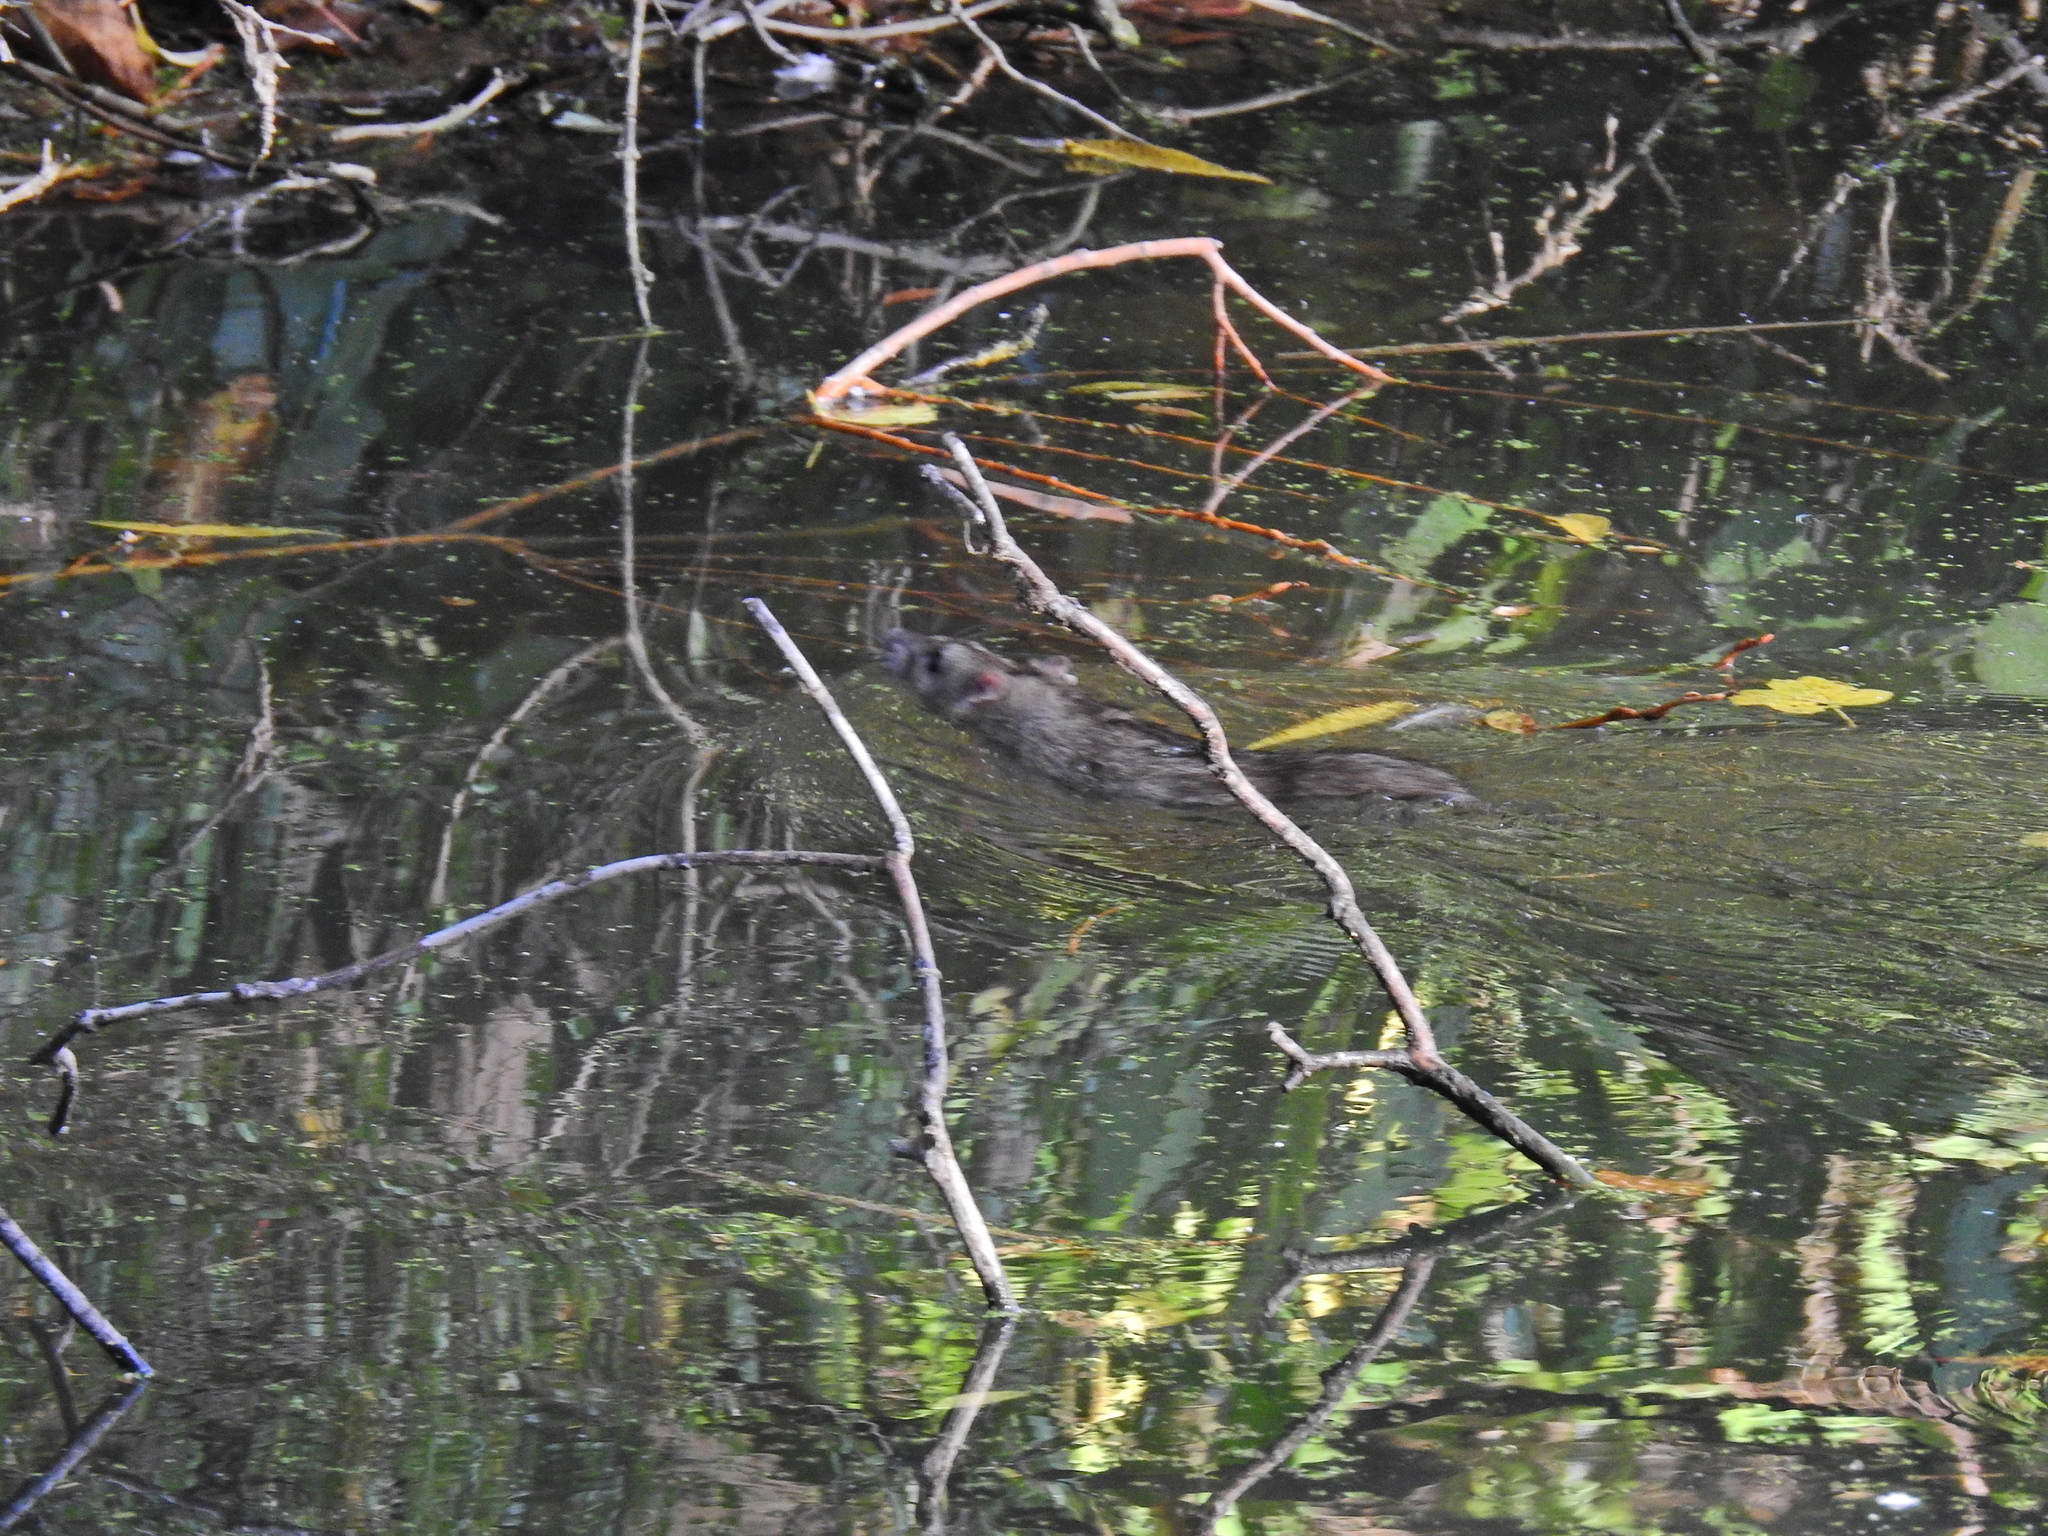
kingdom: Animalia
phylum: Chordata
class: Mammalia
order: Rodentia
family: Muridae
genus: Rattus
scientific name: Rattus norvegicus
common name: Brown rat
